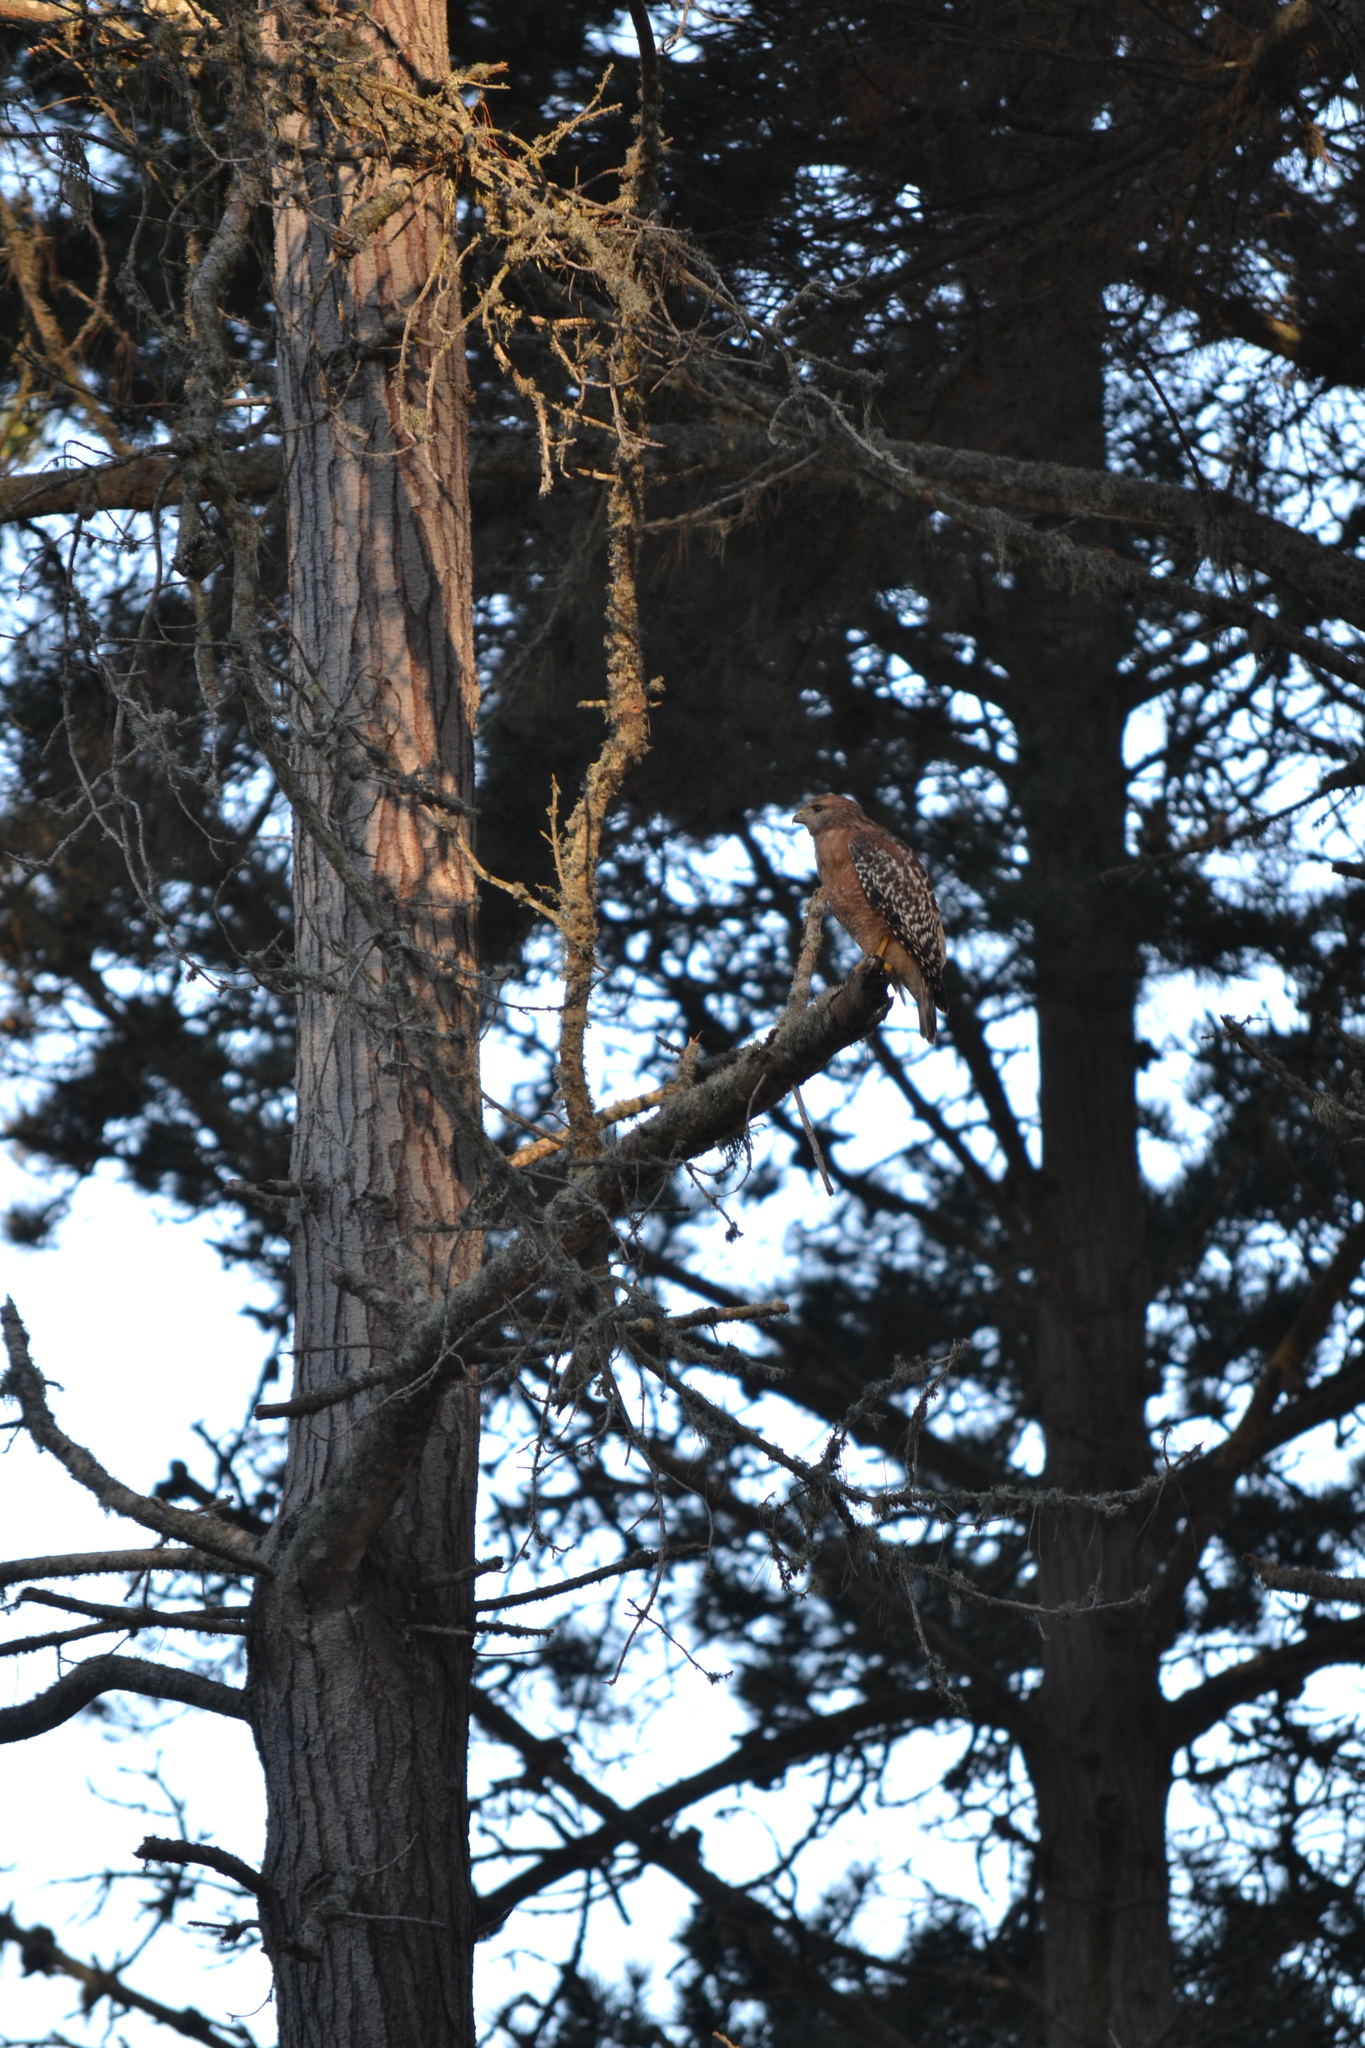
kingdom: Animalia
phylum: Chordata
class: Aves
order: Accipitriformes
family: Accipitridae
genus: Buteo
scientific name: Buteo lineatus
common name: Red-shouldered hawk
